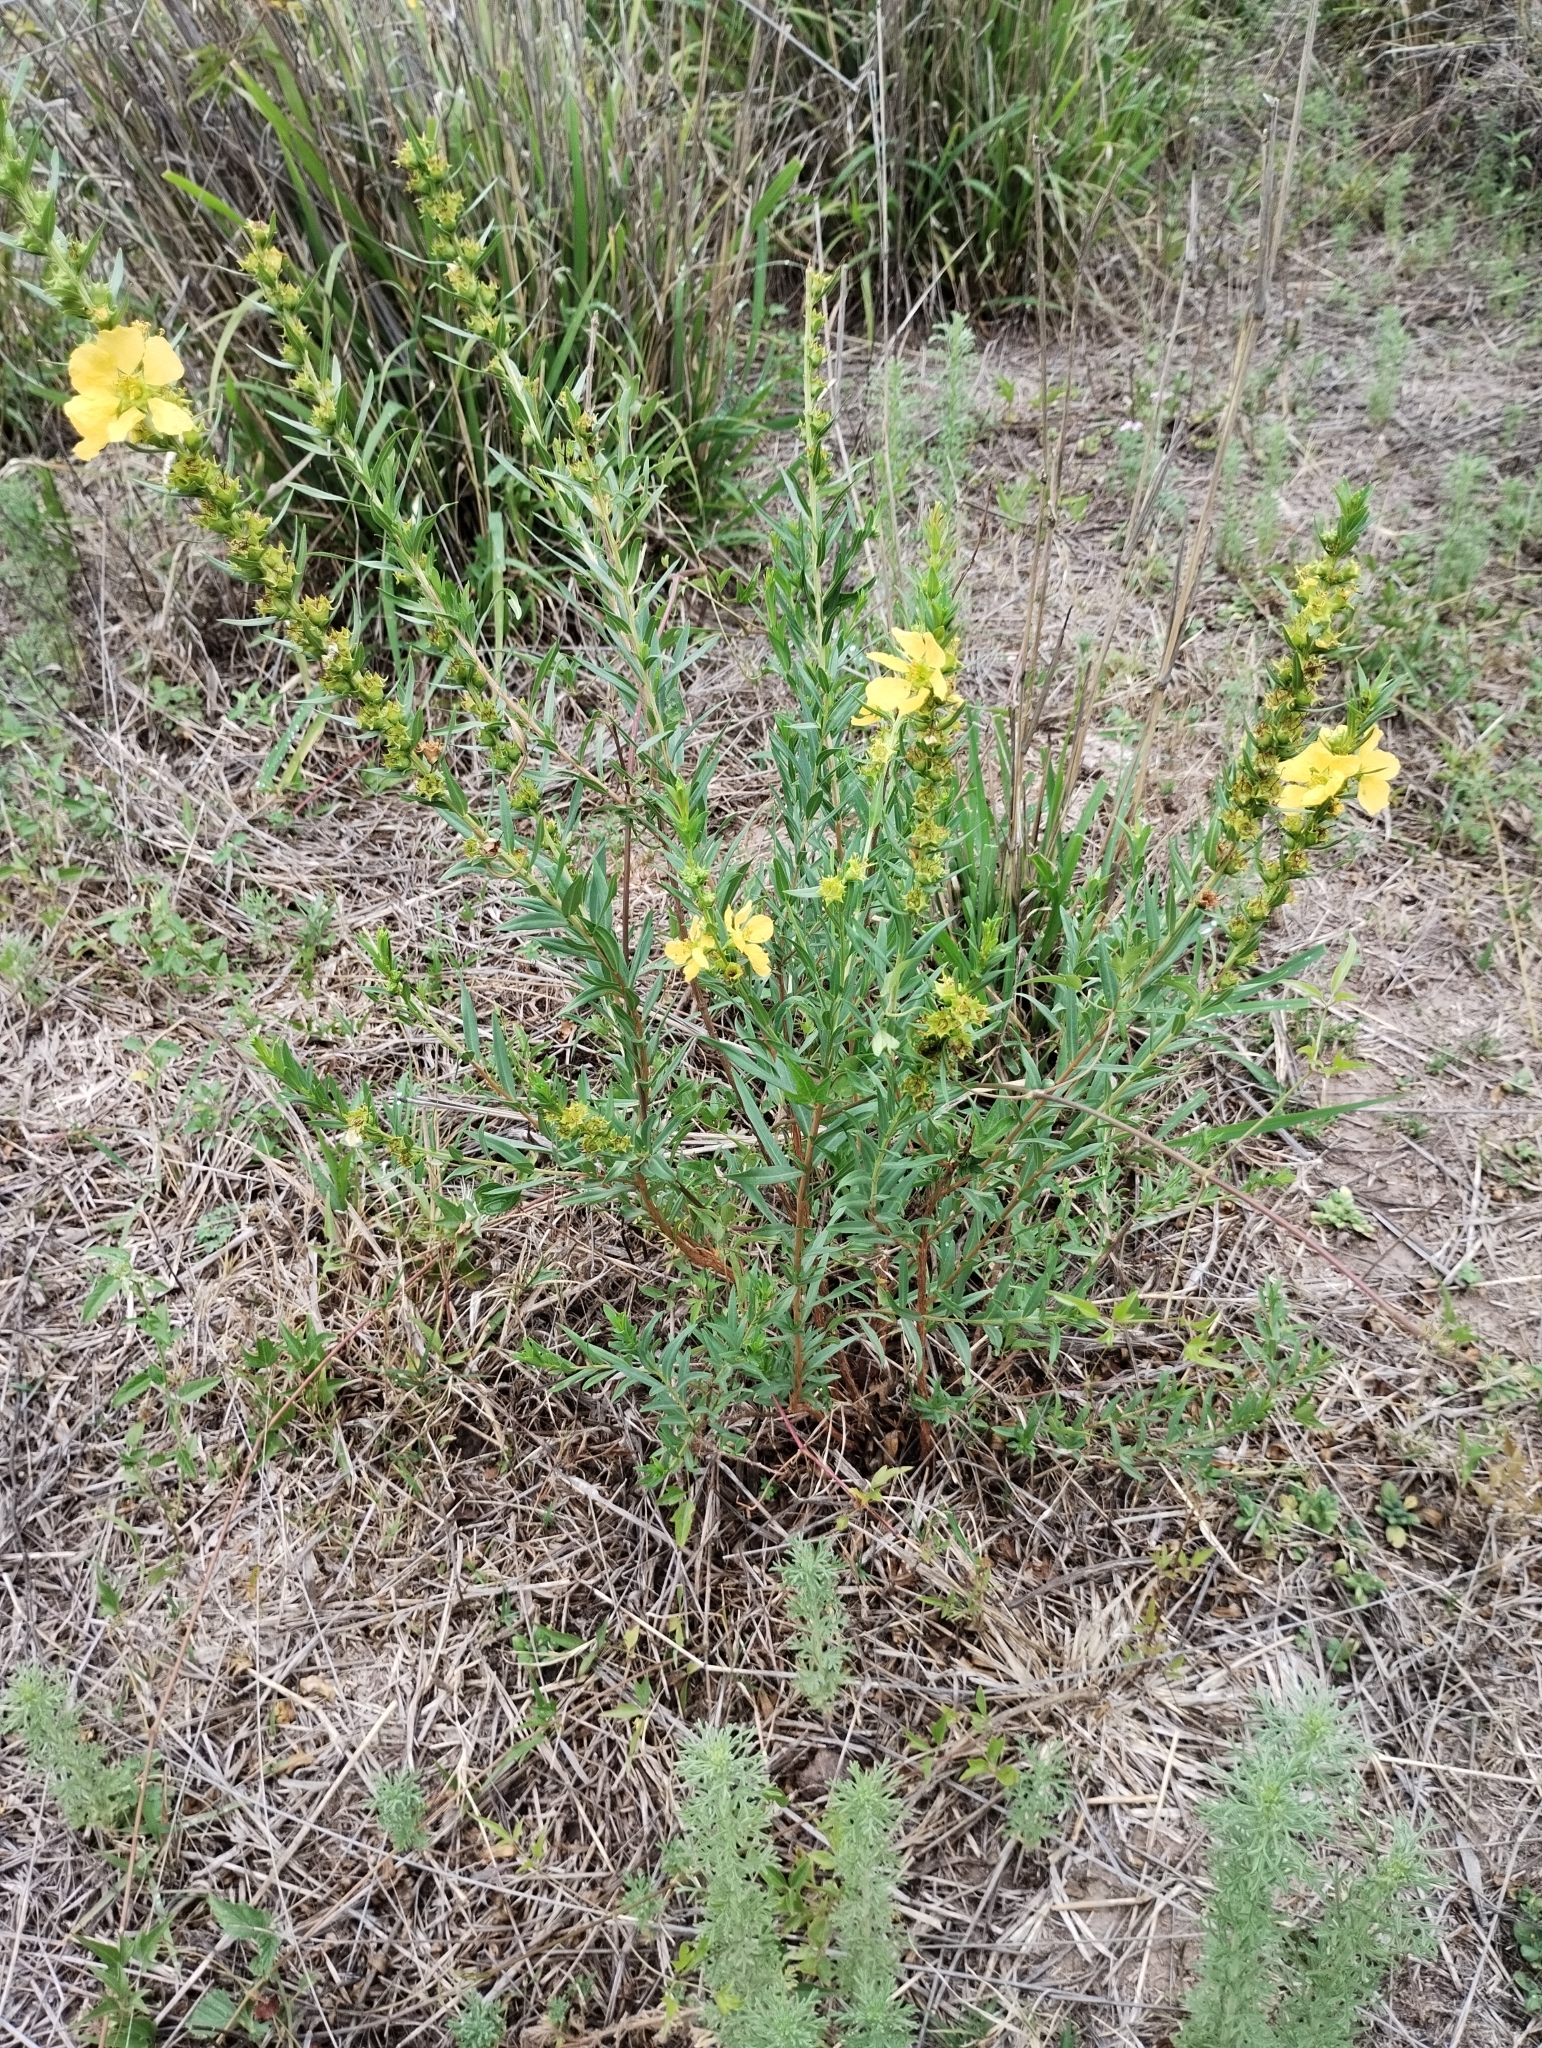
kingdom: Plantae
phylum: Tracheophyta
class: Magnoliopsida
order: Myrtales
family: Lythraceae
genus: Heimia
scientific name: Heimia salicifolia
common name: Willow-leaf heimia
